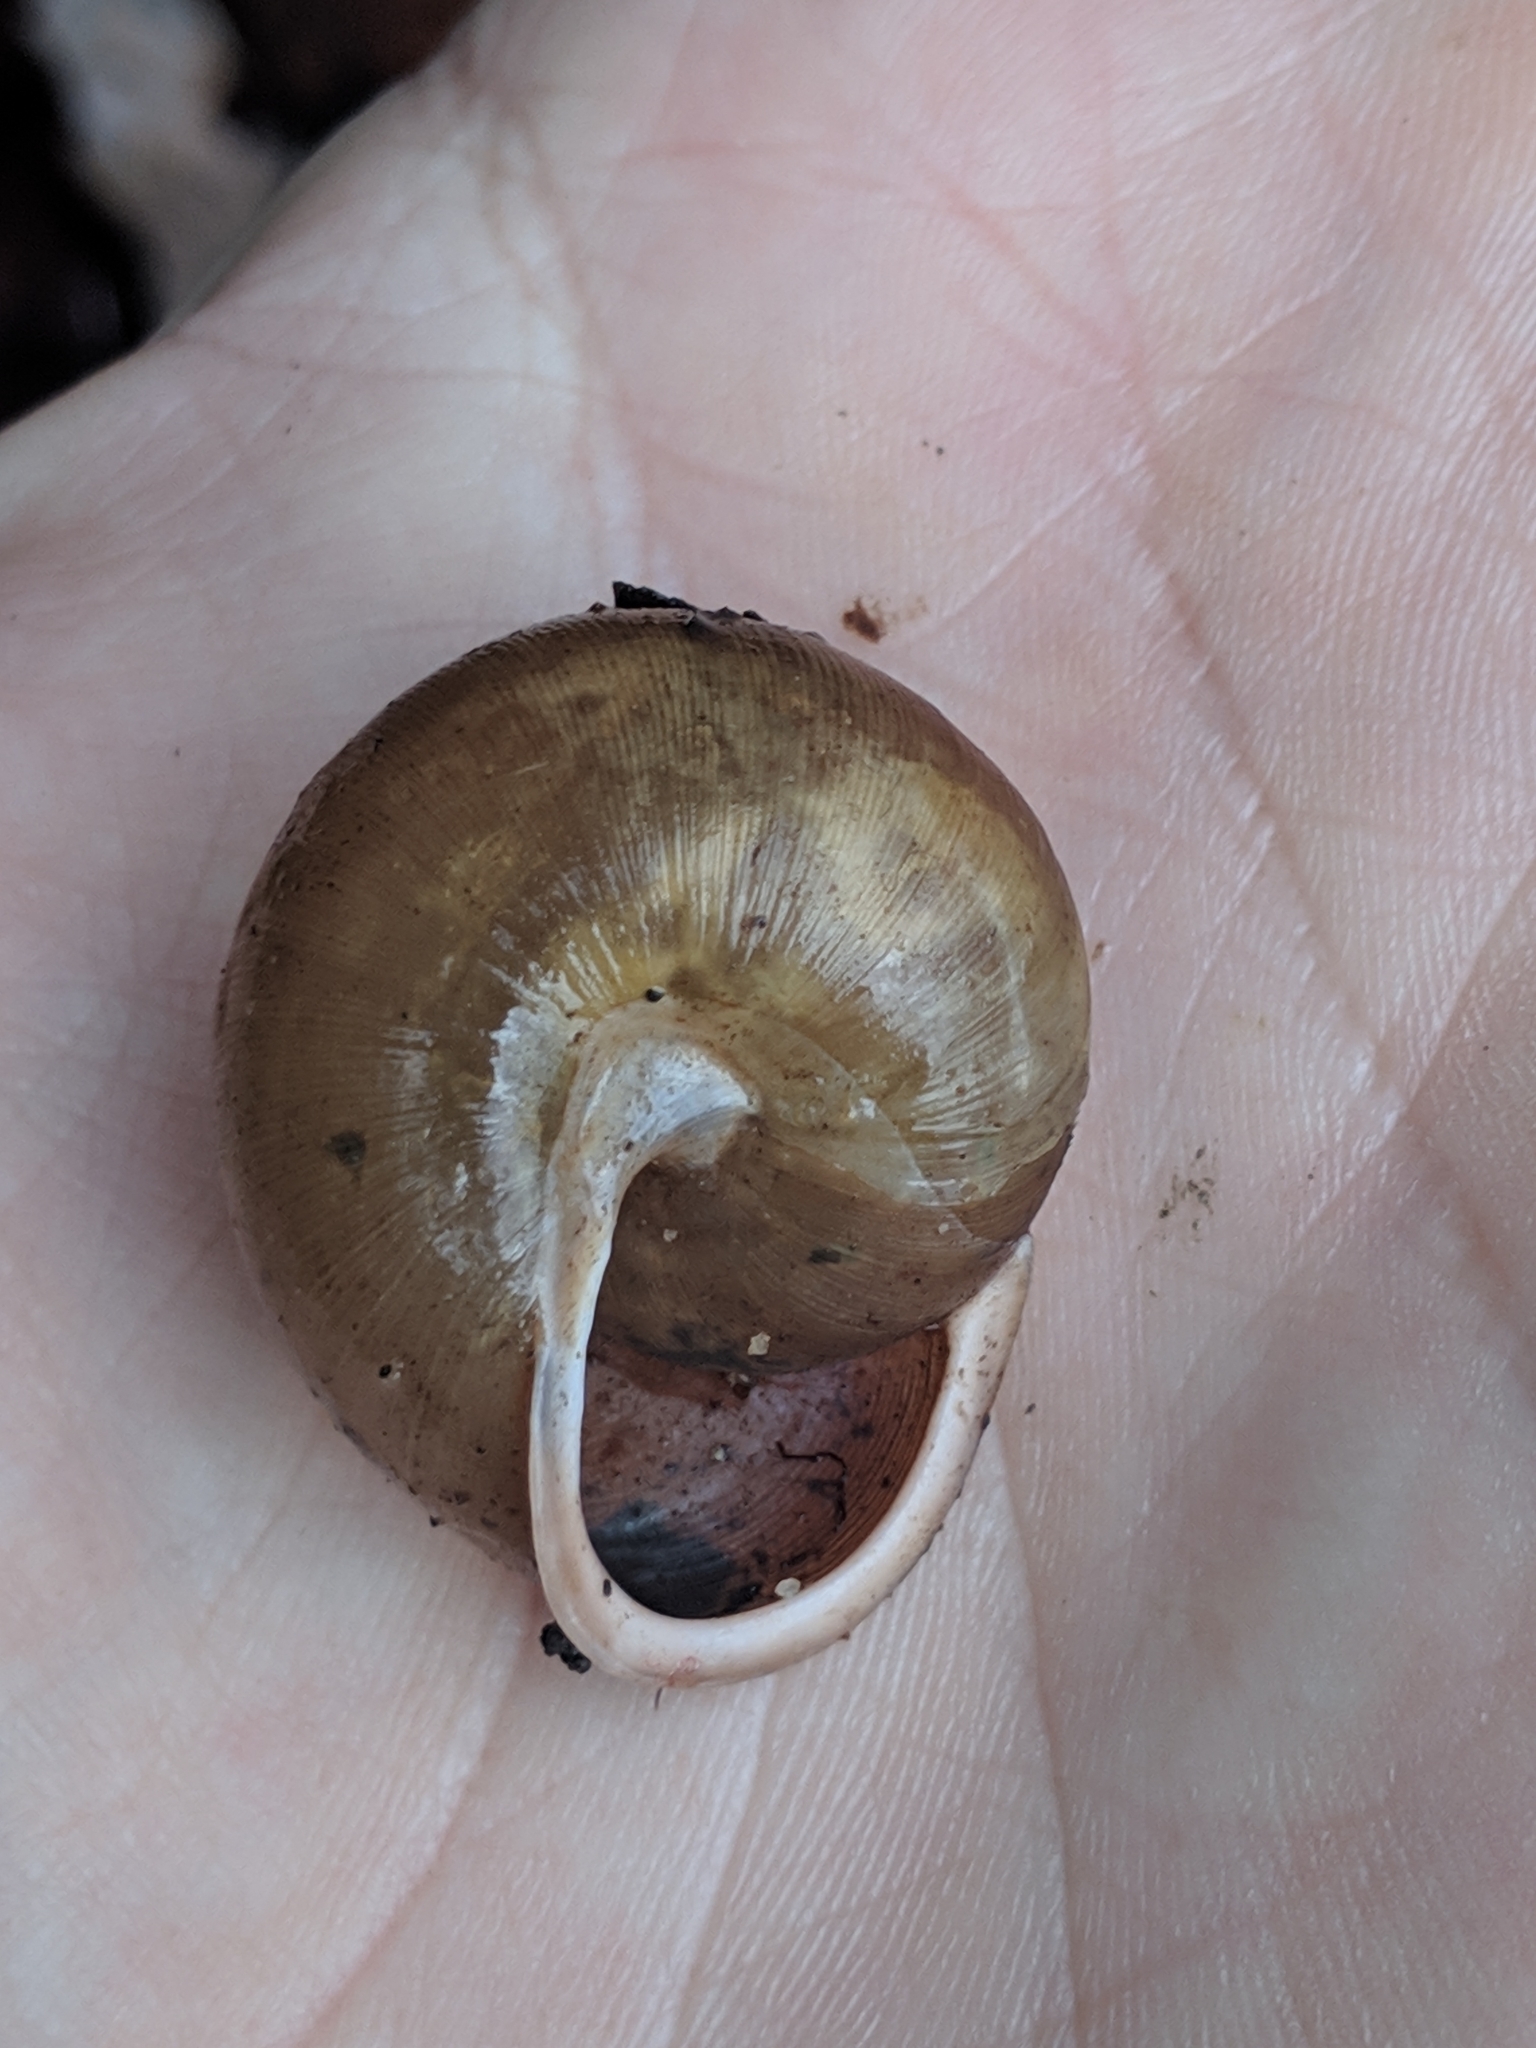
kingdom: Animalia
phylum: Mollusca
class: Gastropoda
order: Stylommatophora
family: Polygyridae
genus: Neohelix
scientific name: Neohelix albolabris
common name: Eastern whitelip
